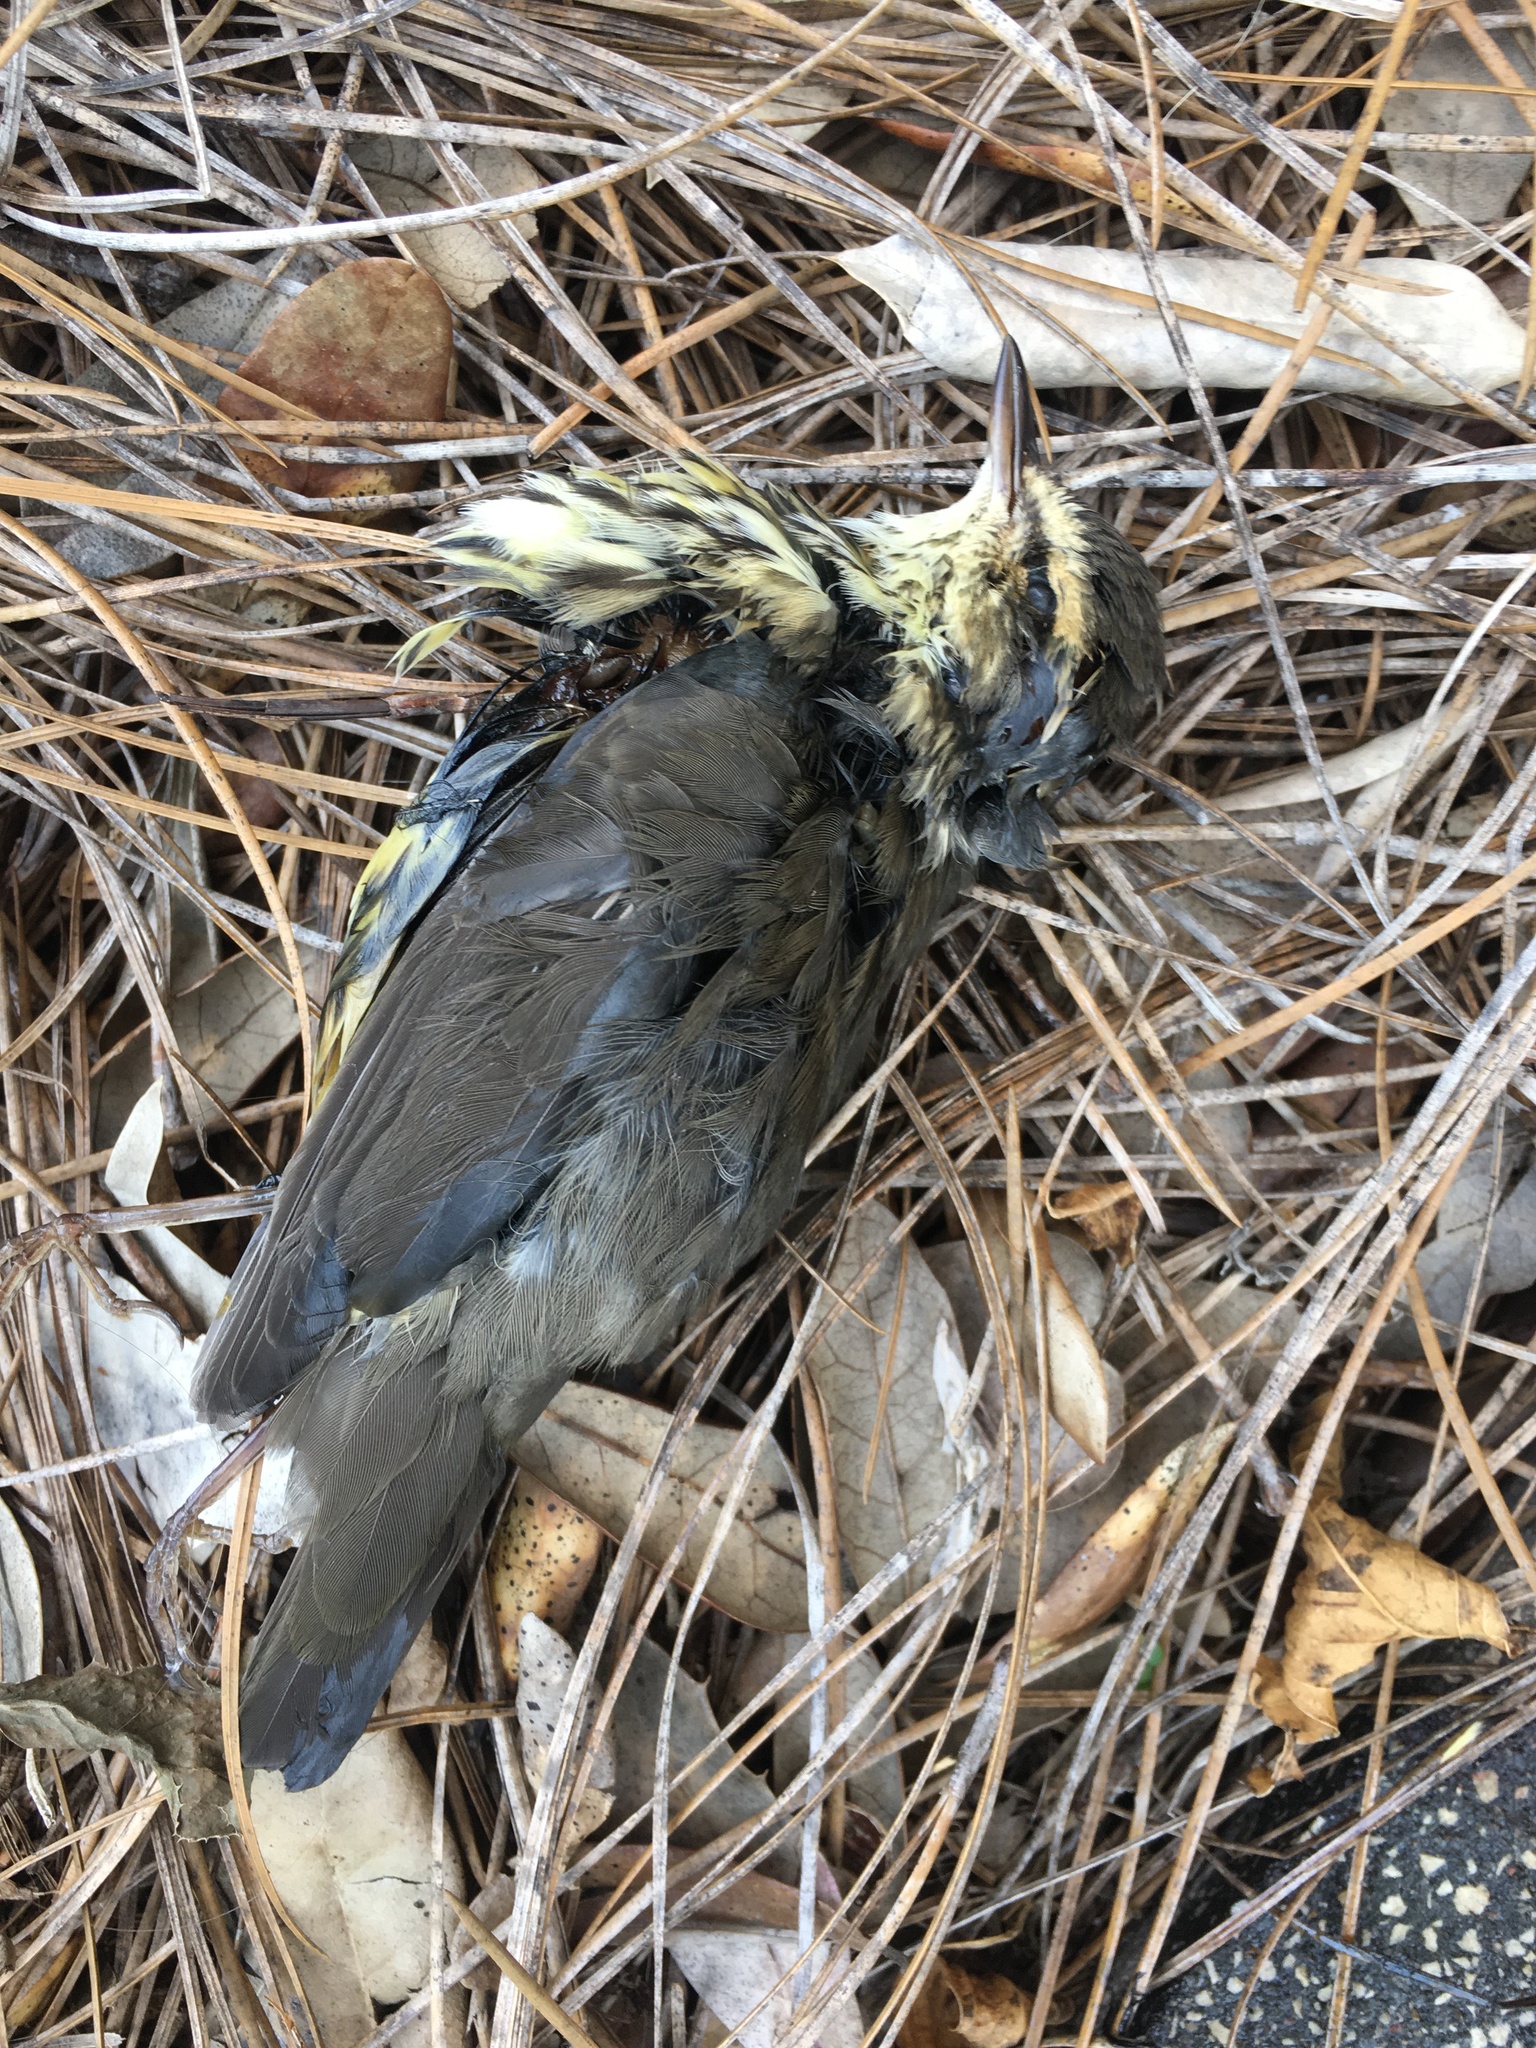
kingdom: Animalia
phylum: Chordata
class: Aves
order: Passeriformes
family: Parulidae
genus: Parkesia
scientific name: Parkesia noveboracensis
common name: Northern waterthrush
